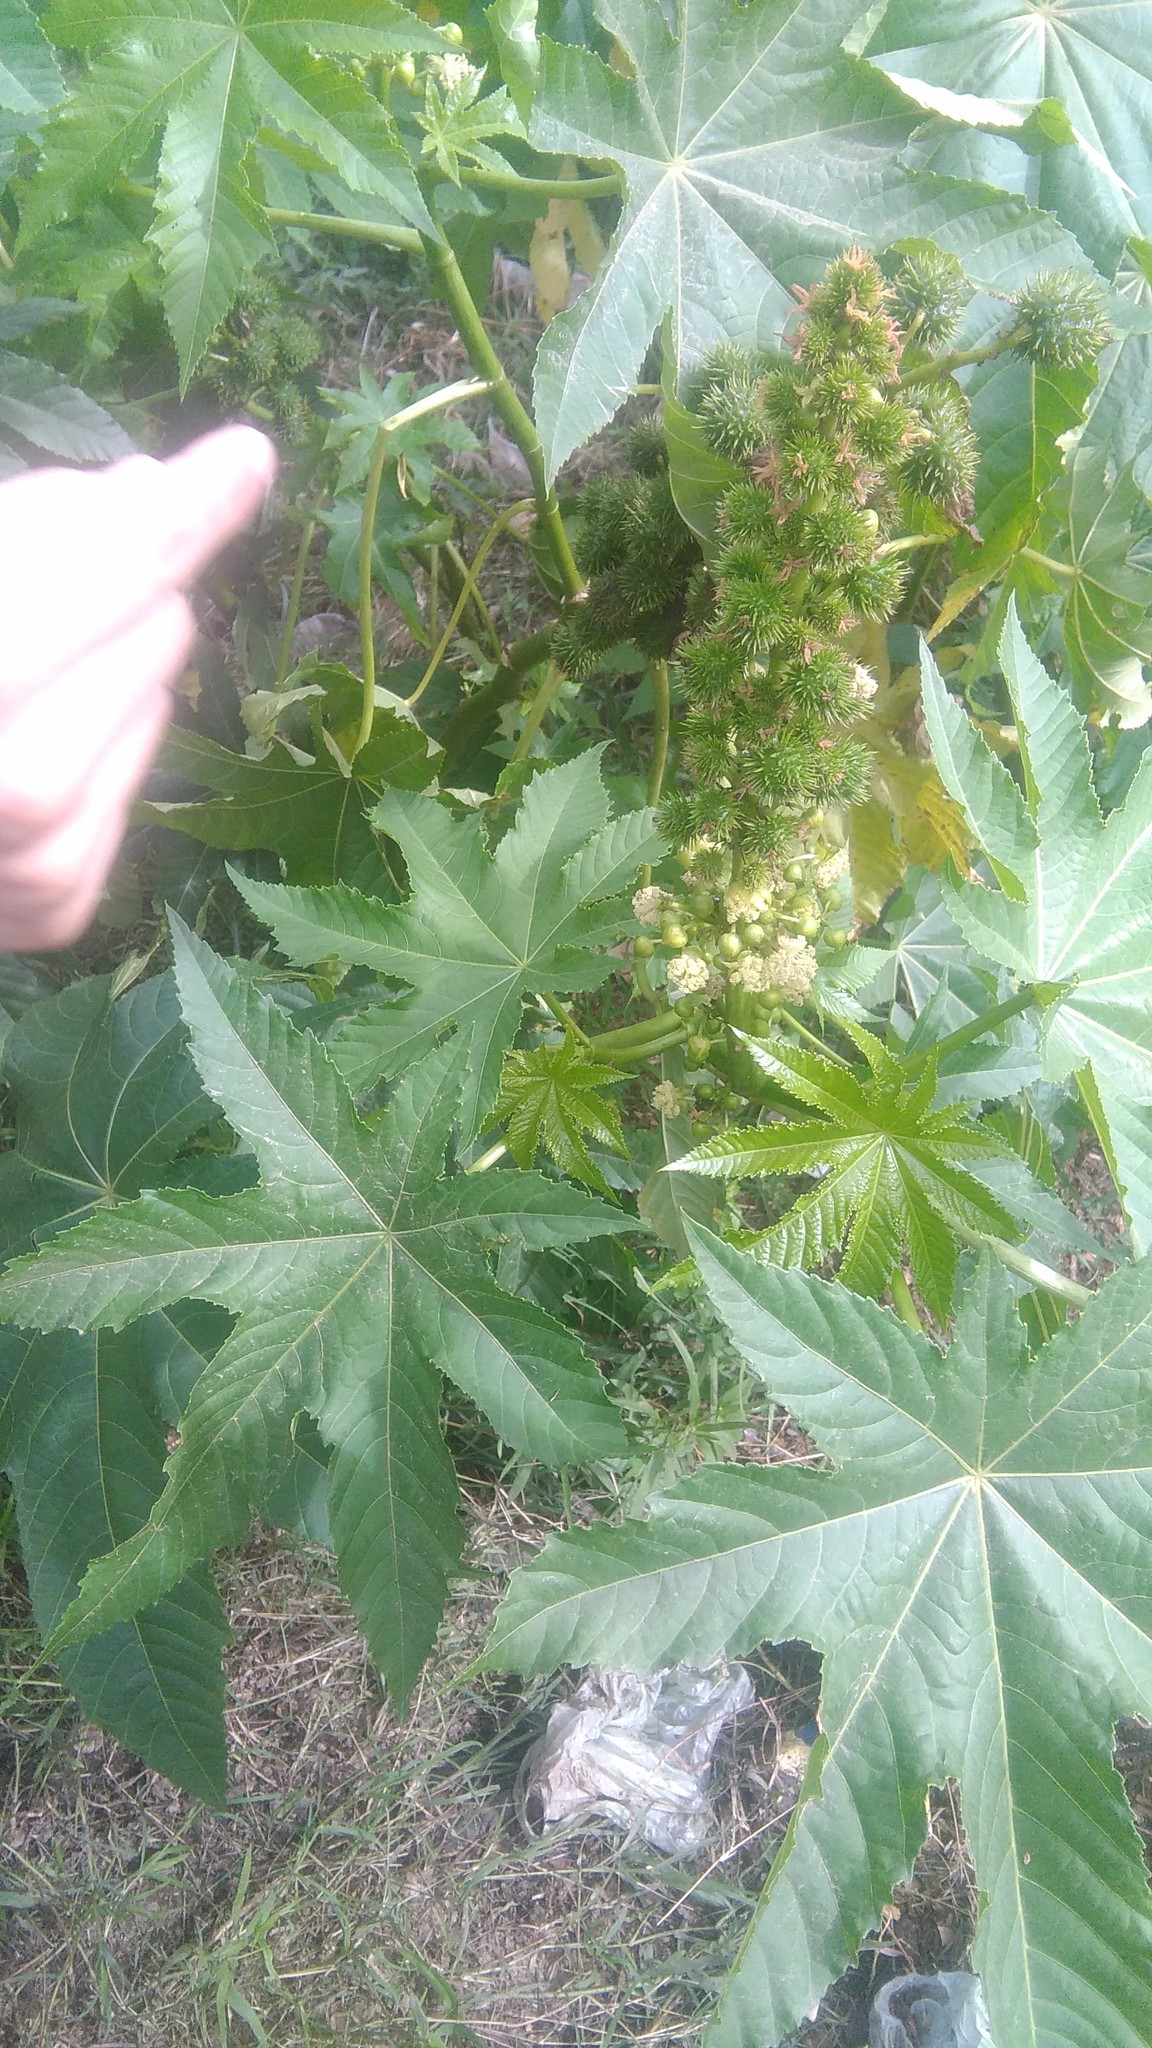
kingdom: Plantae
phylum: Tracheophyta
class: Magnoliopsida
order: Malpighiales
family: Euphorbiaceae
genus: Ricinus
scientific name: Ricinus communis
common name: Castor-oil-plant
